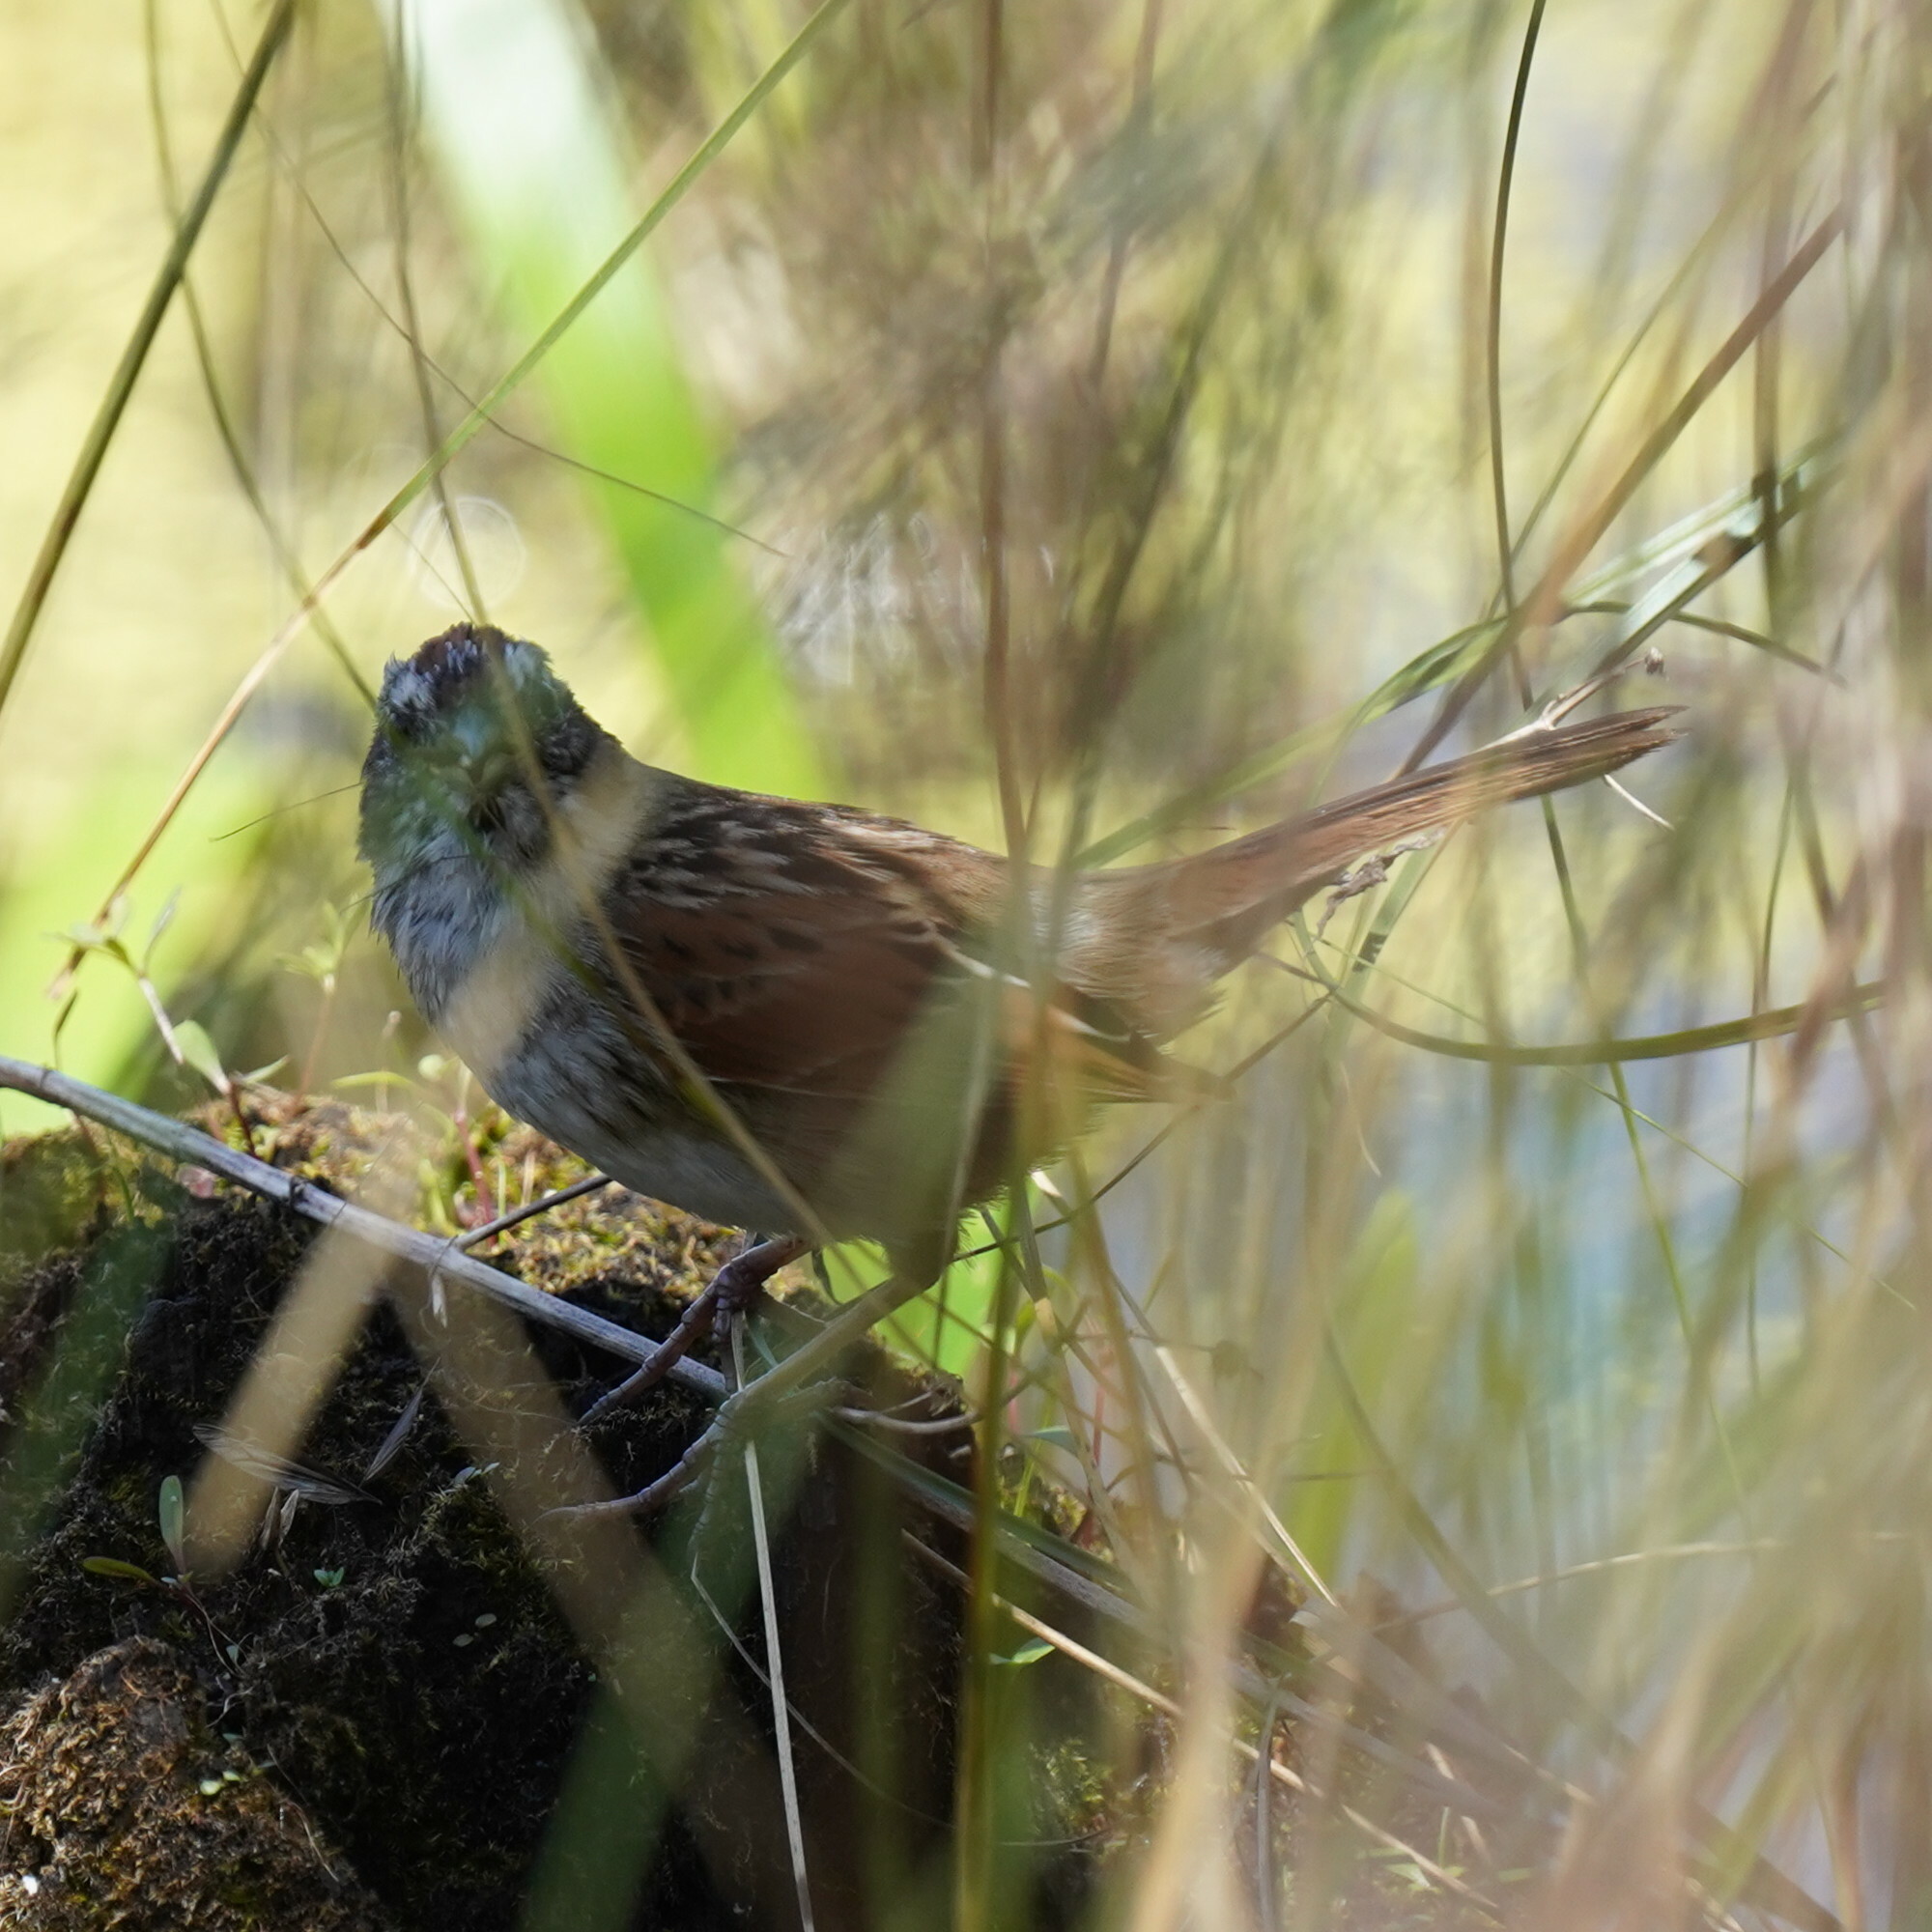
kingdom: Animalia
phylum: Chordata
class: Aves
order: Passeriformes
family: Passerellidae
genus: Melospiza
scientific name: Melospiza georgiana
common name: Swamp sparrow
